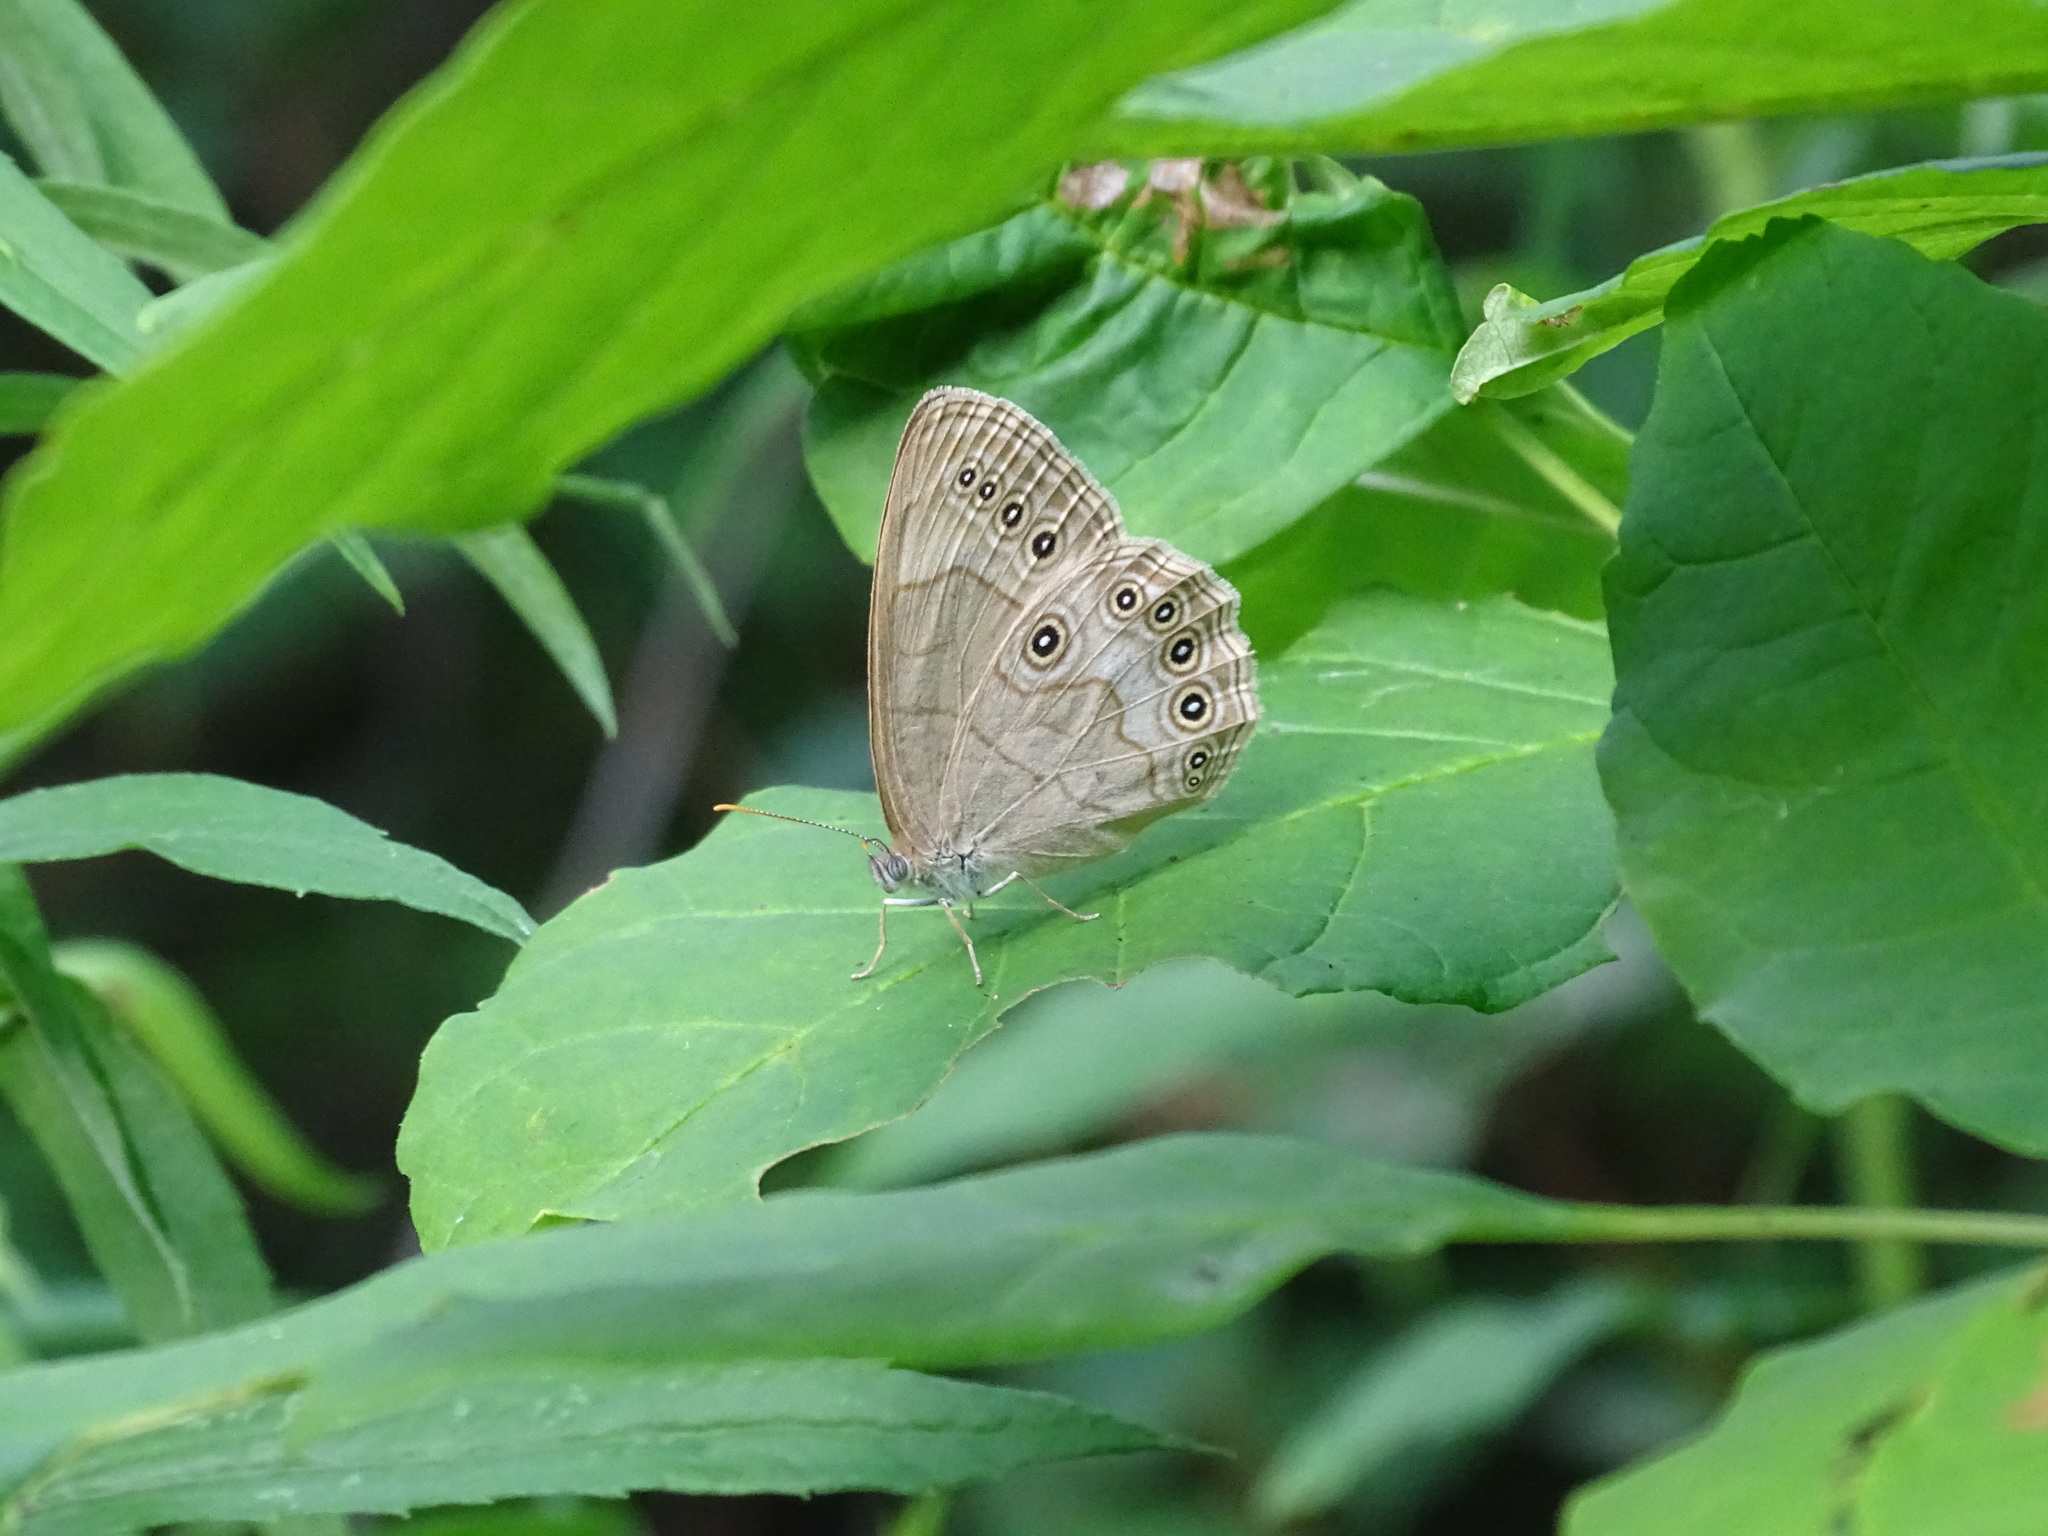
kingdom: Animalia
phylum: Arthropoda
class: Insecta
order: Lepidoptera
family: Nymphalidae
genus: Lethe
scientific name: Lethe eurydice
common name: Eyed brown
